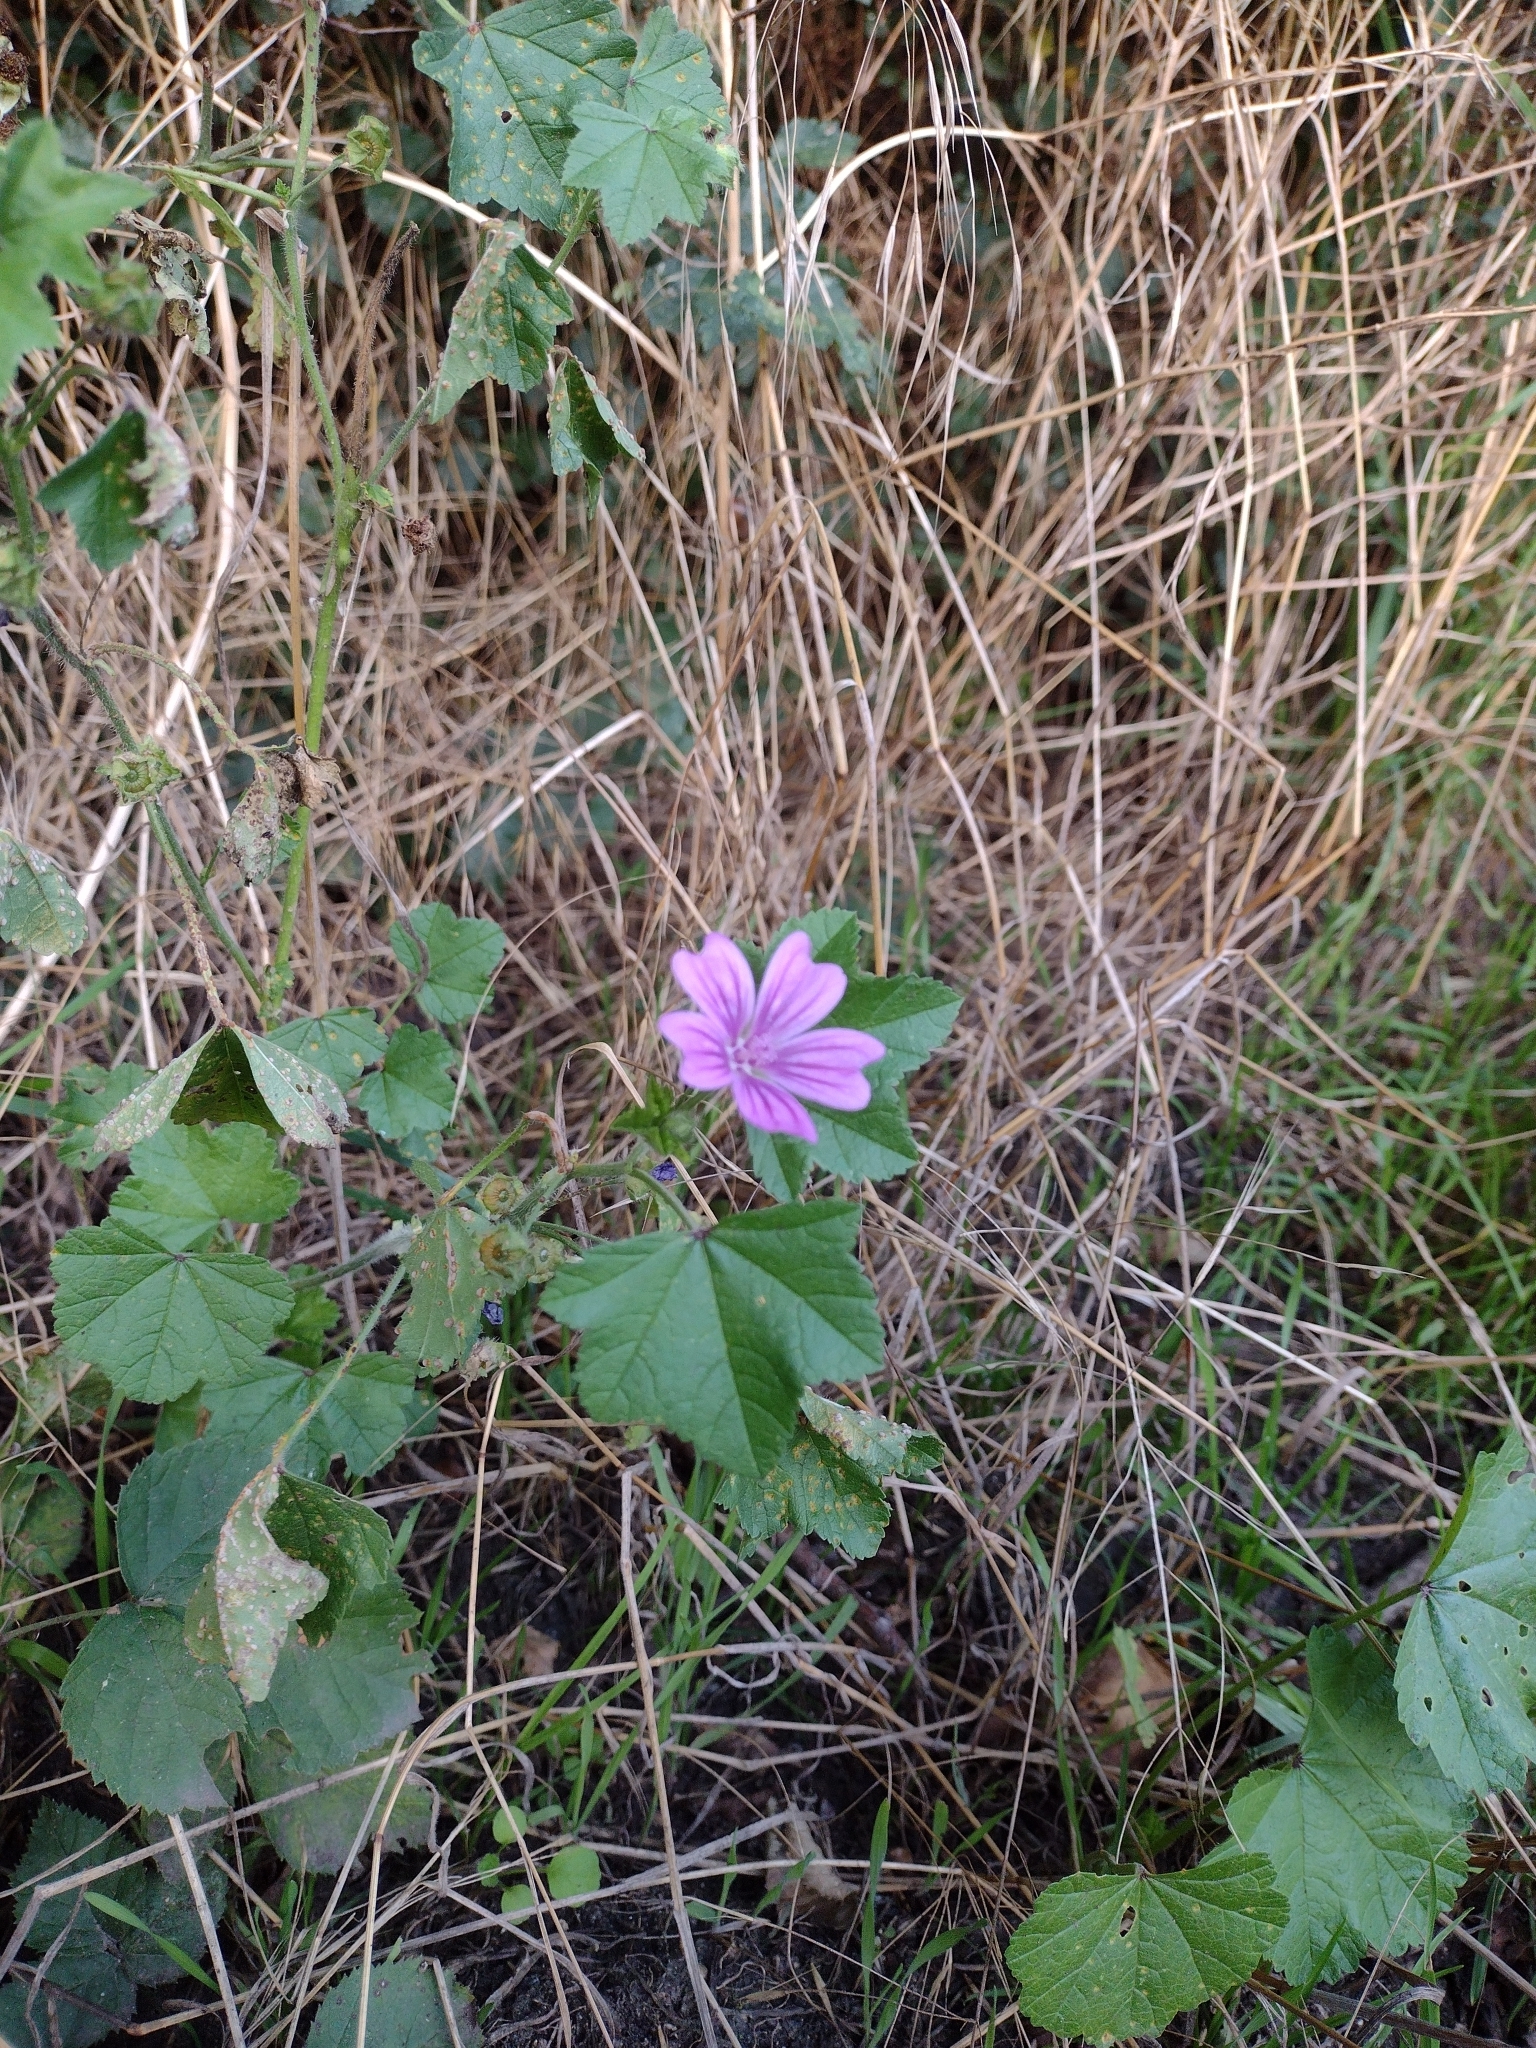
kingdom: Plantae
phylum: Tracheophyta
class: Magnoliopsida
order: Malvales
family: Malvaceae
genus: Malva
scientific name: Malva sylvestris
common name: Common mallow
